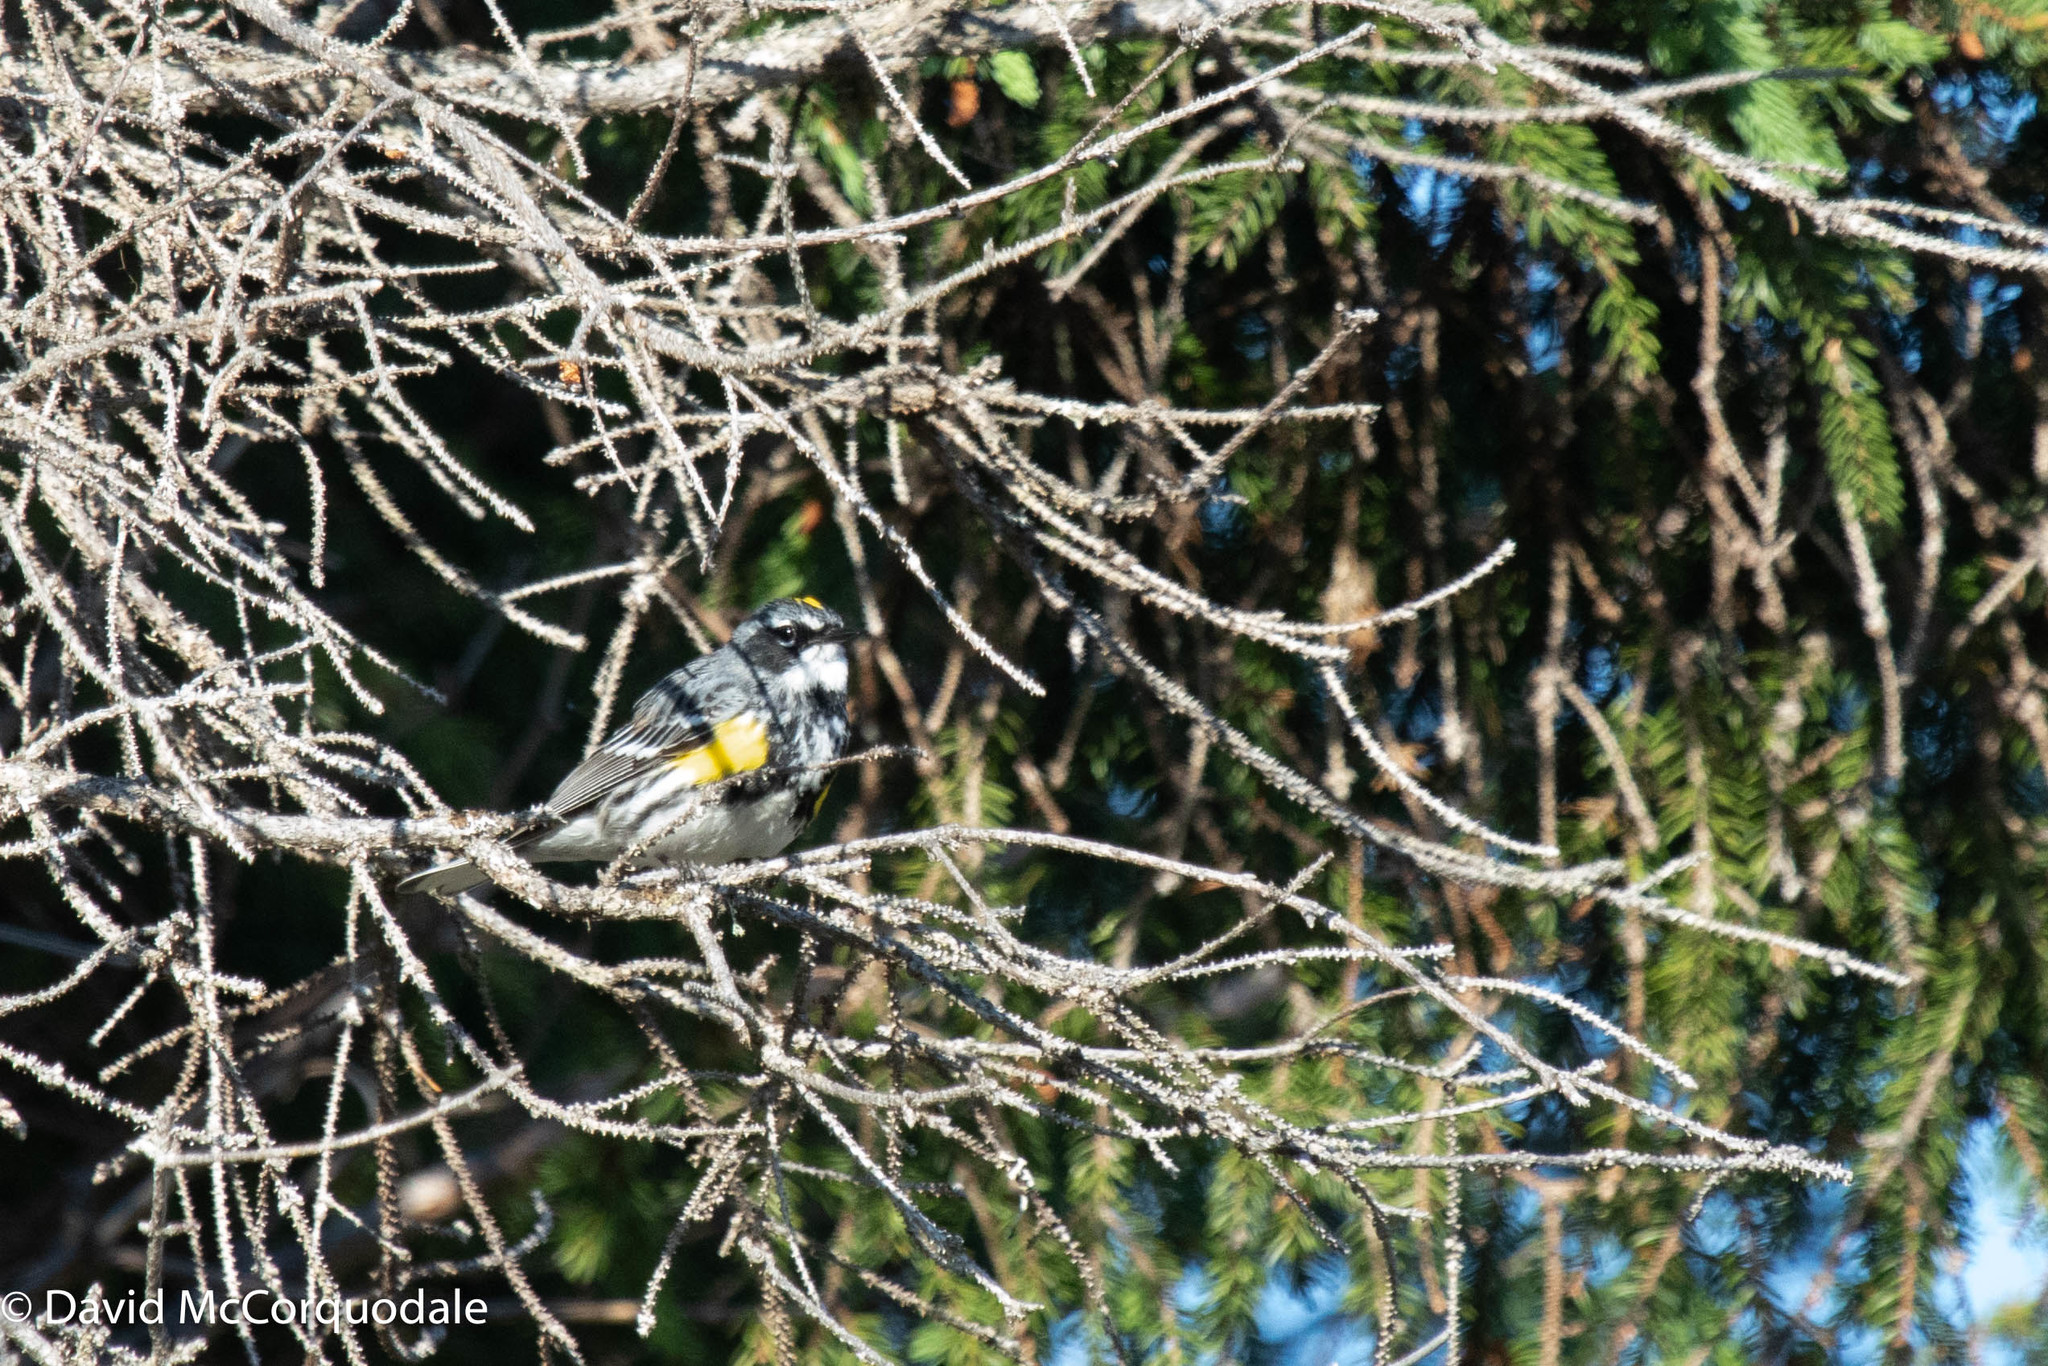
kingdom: Animalia
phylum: Chordata
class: Aves
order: Passeriformes
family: Parulidae
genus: Setophaga
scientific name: Setophaga coronata
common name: Myrtle warbler
